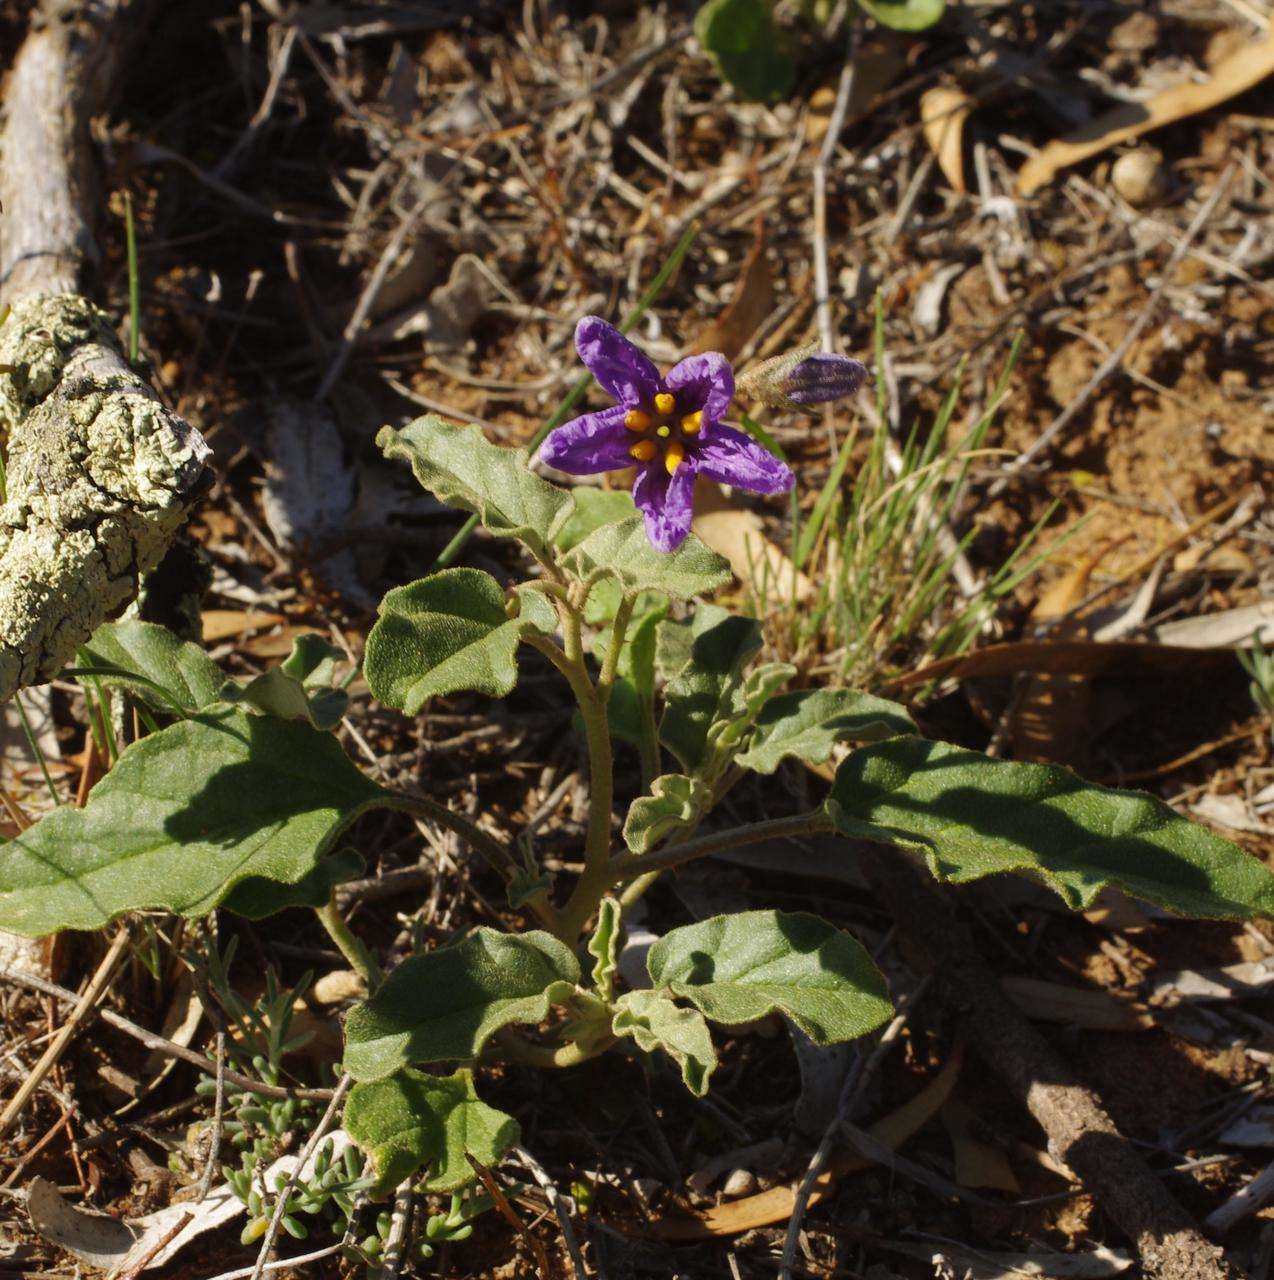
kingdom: Plantae
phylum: Tracheophyta
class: Magnoliopsida
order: Solanales
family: Solanaceae
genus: Solanum
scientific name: Solanum esuriale
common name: Wild tomato
